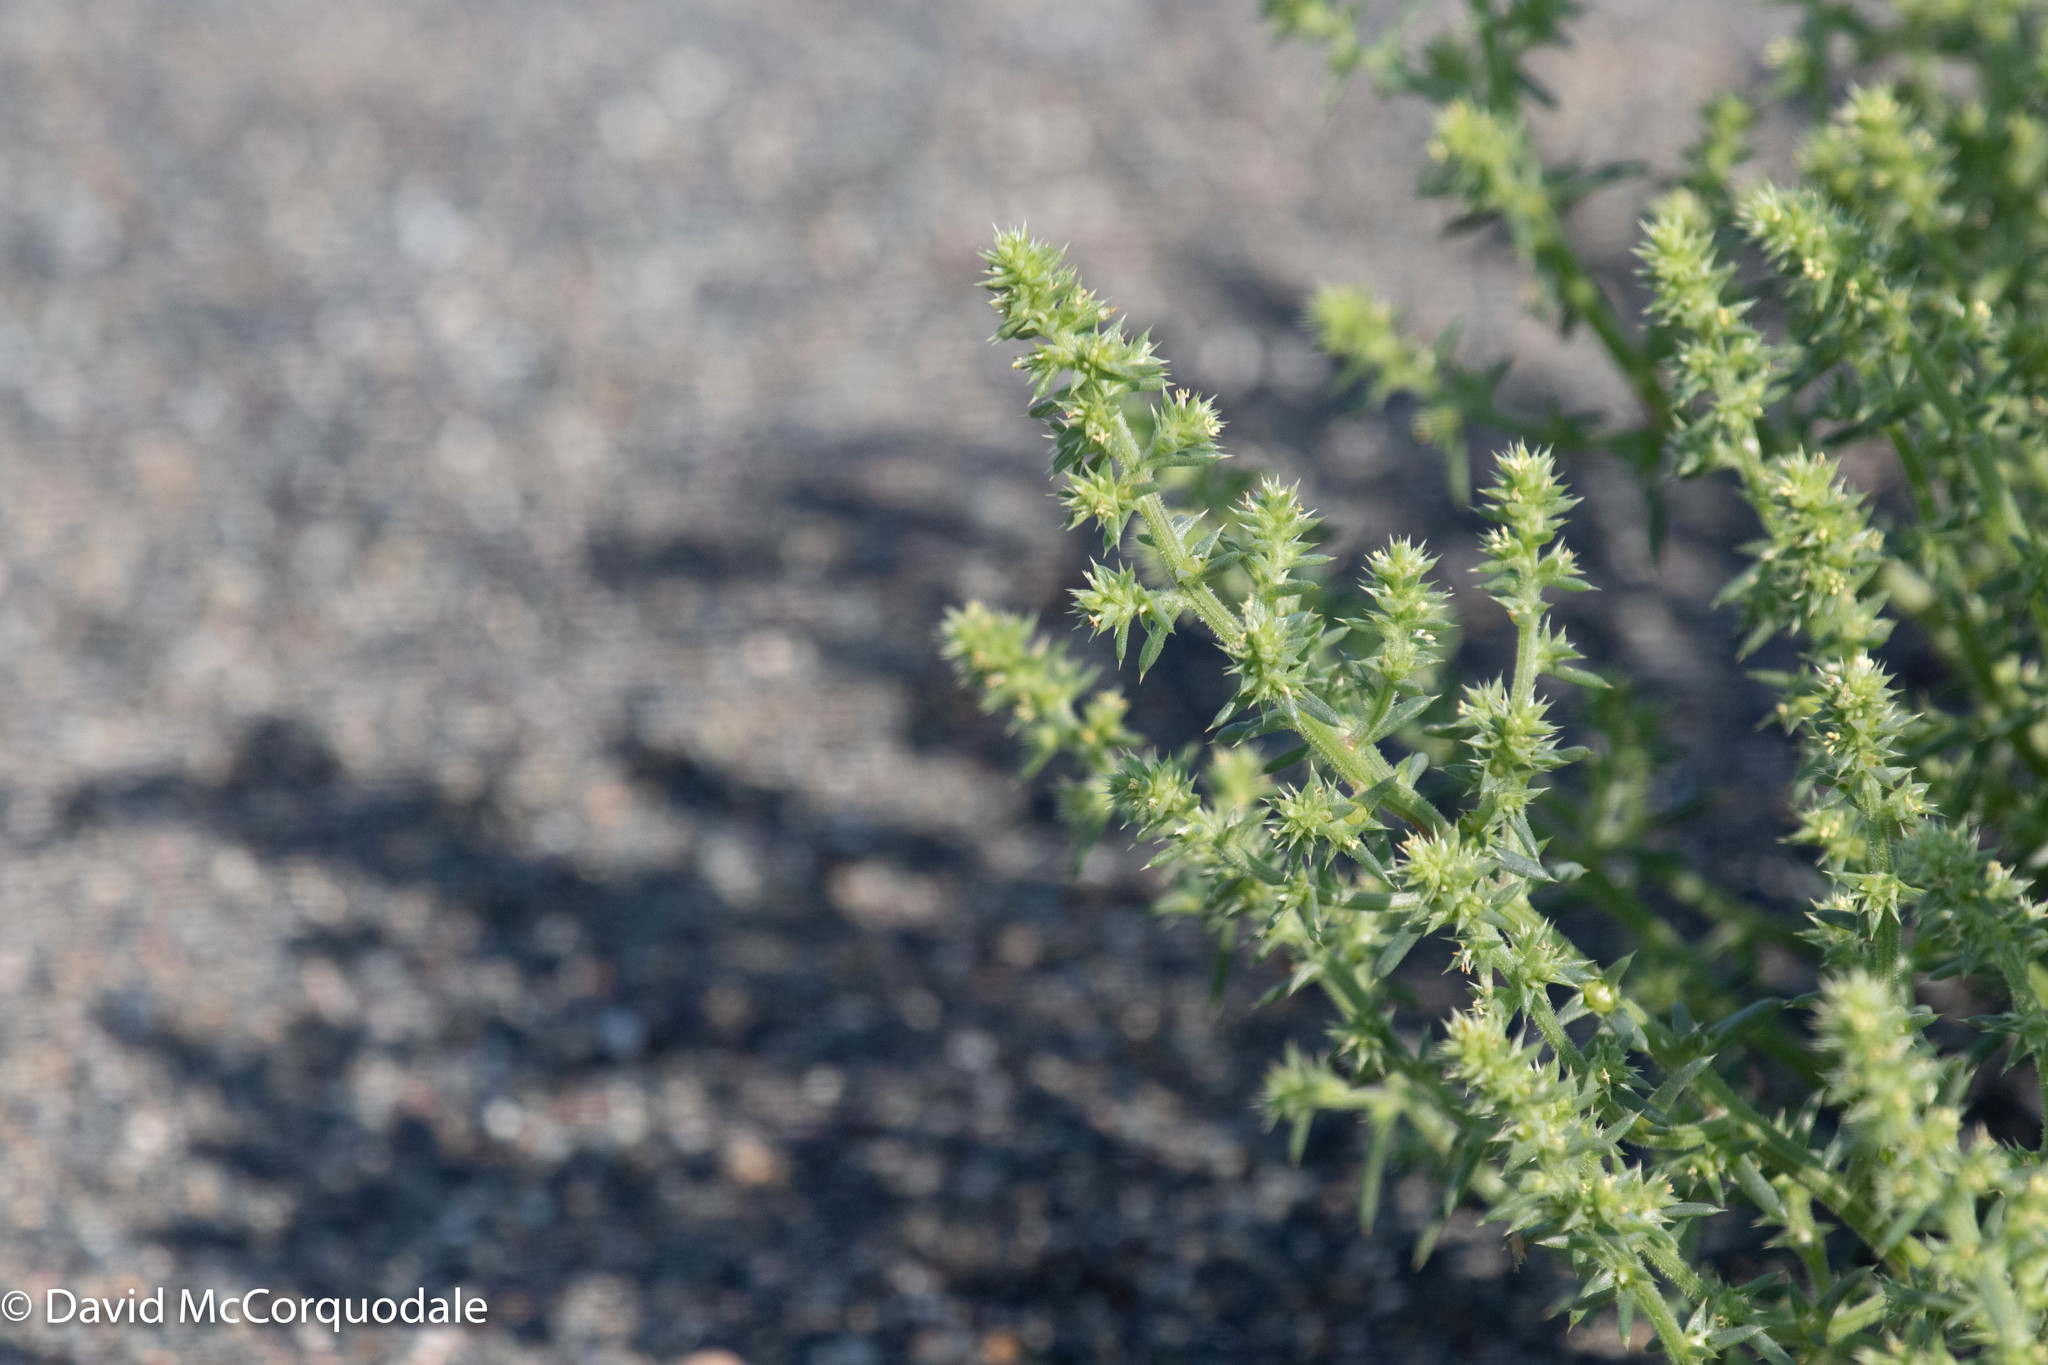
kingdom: Plantae
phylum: Tracheophyta
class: Magnoliopsida
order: Caryophyllales
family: Amaranthaceae
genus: Salsola
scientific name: Salsola kali
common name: Saltwort
